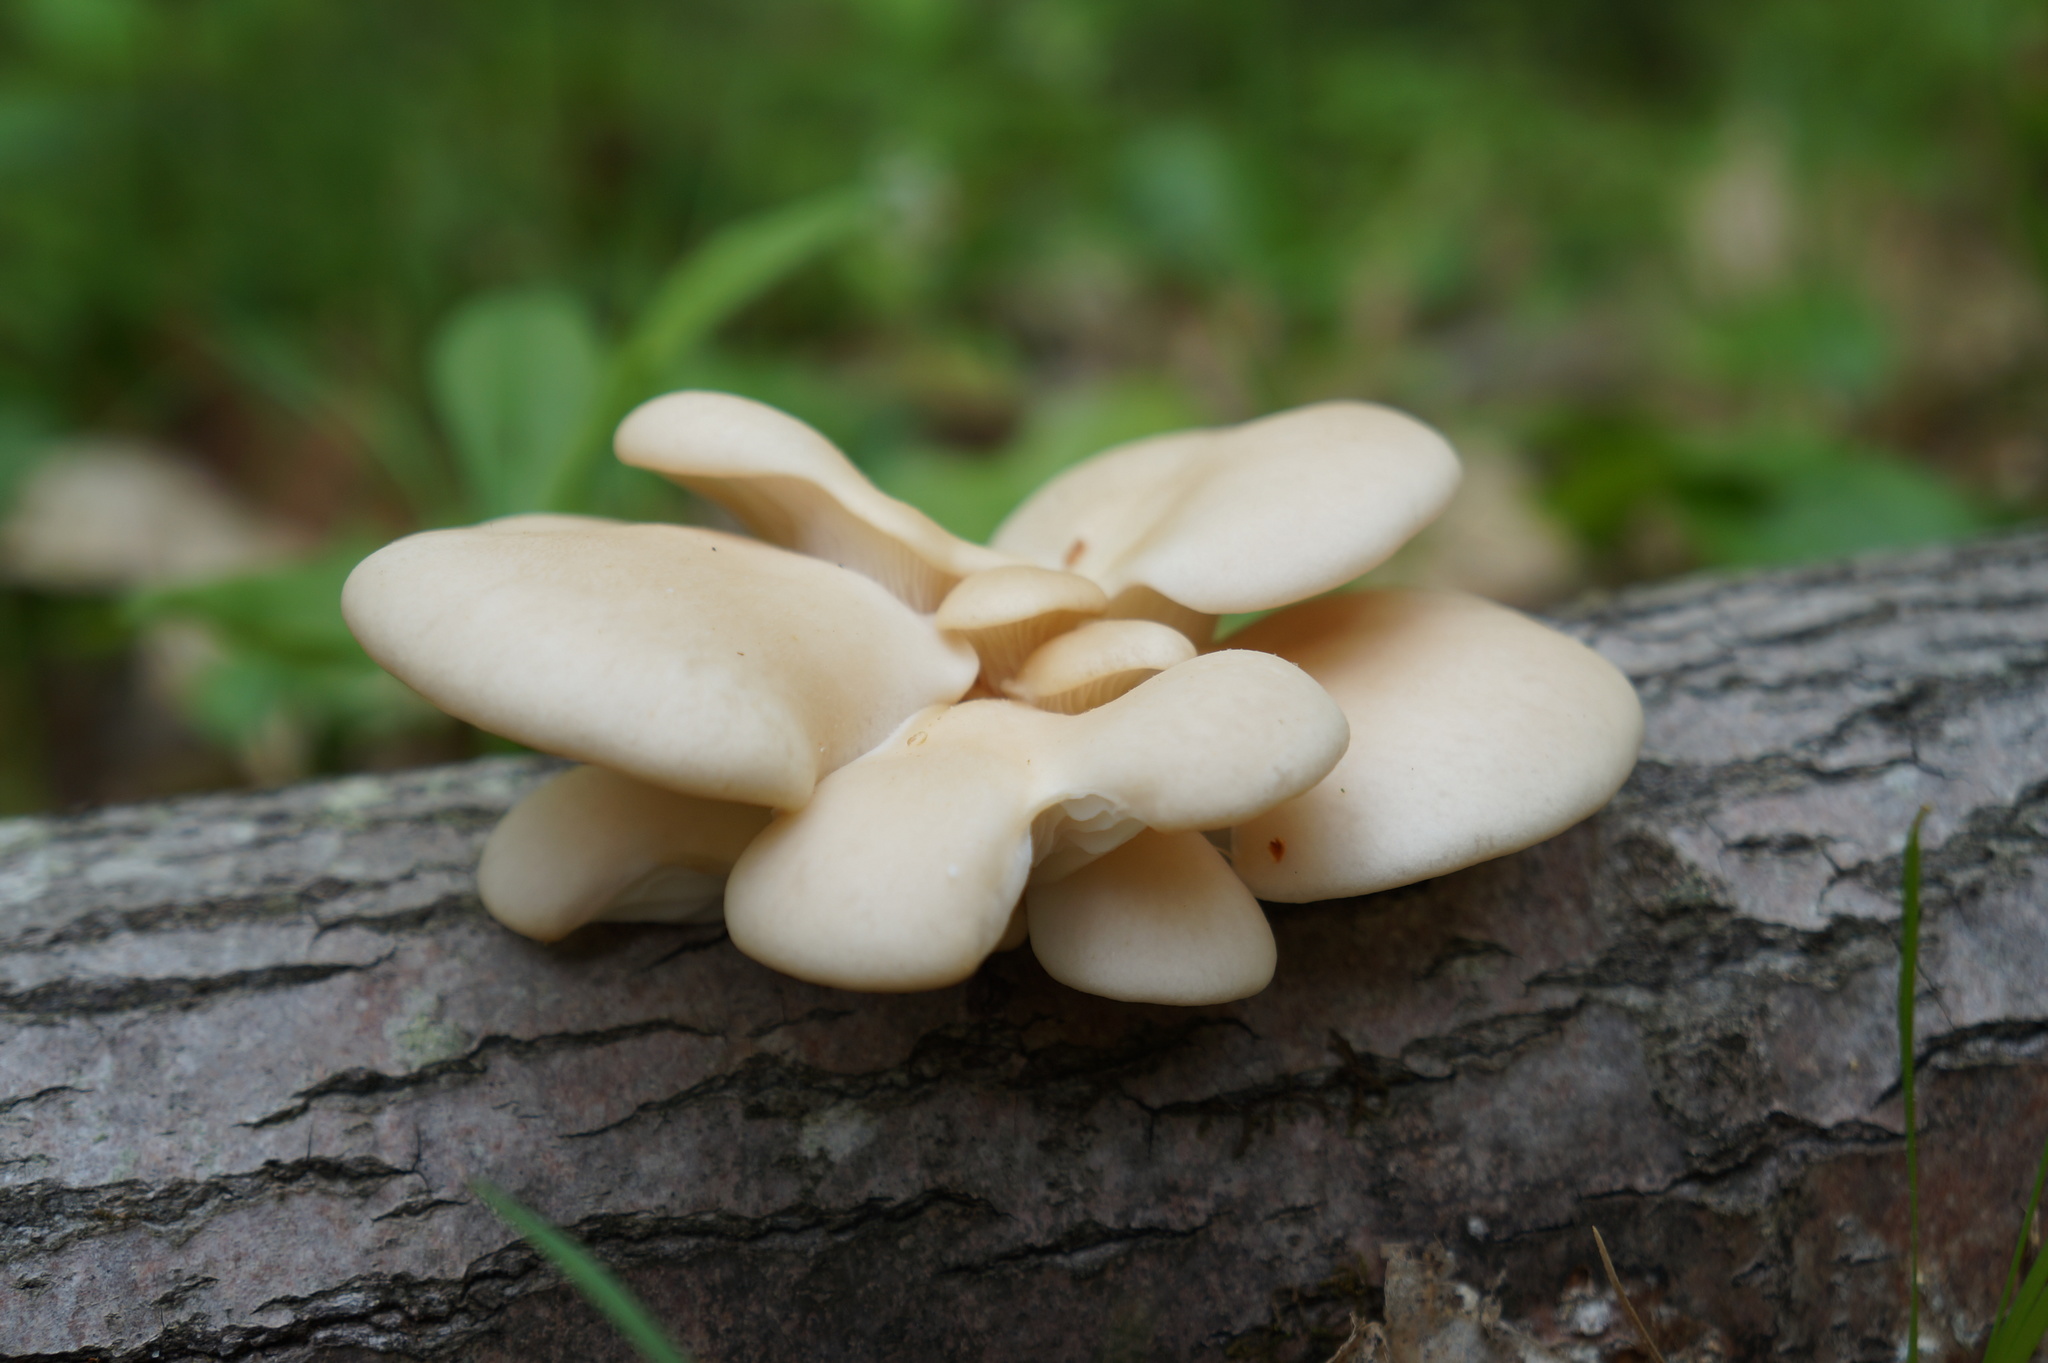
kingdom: Fungi
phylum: Basidiomycota
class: Agaricomycetes
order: Agaricales
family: Pleurotaceae
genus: Pleurotus
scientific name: Pleurotus populinus
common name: Aspen oyster mushroom
